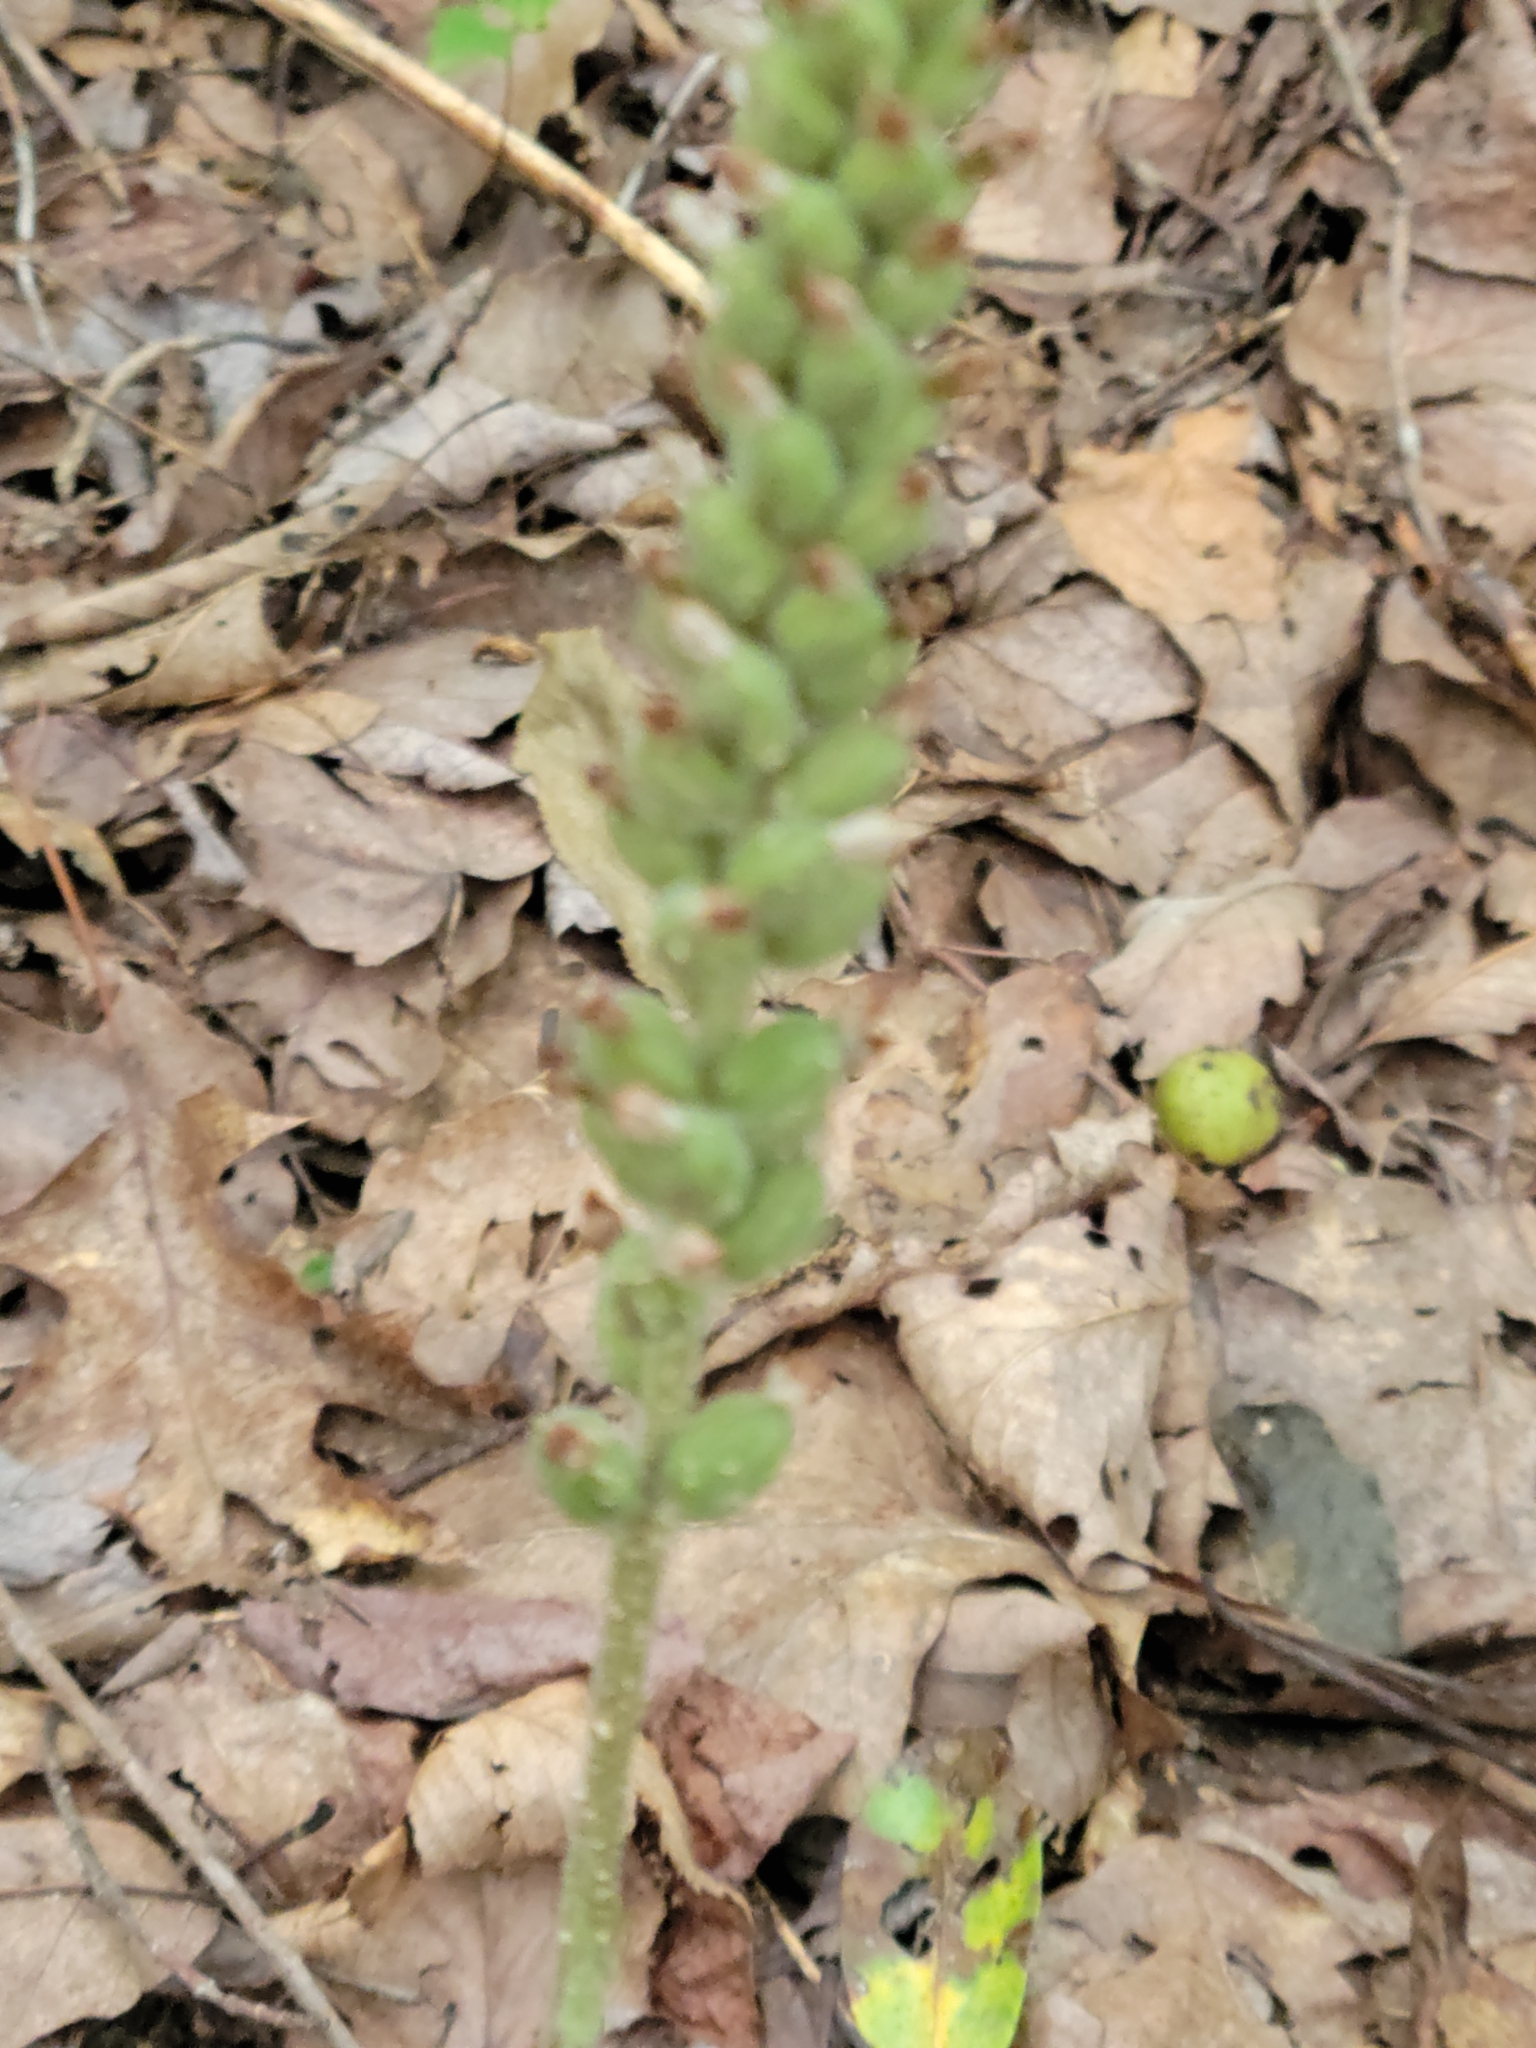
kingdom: Plantae
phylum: Tracheophyta
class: Liliopsida
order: Asparagales
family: Orchidaceae
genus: Goodyera
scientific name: Goodyera pubescens
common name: Downy rattlesnake-plantain
